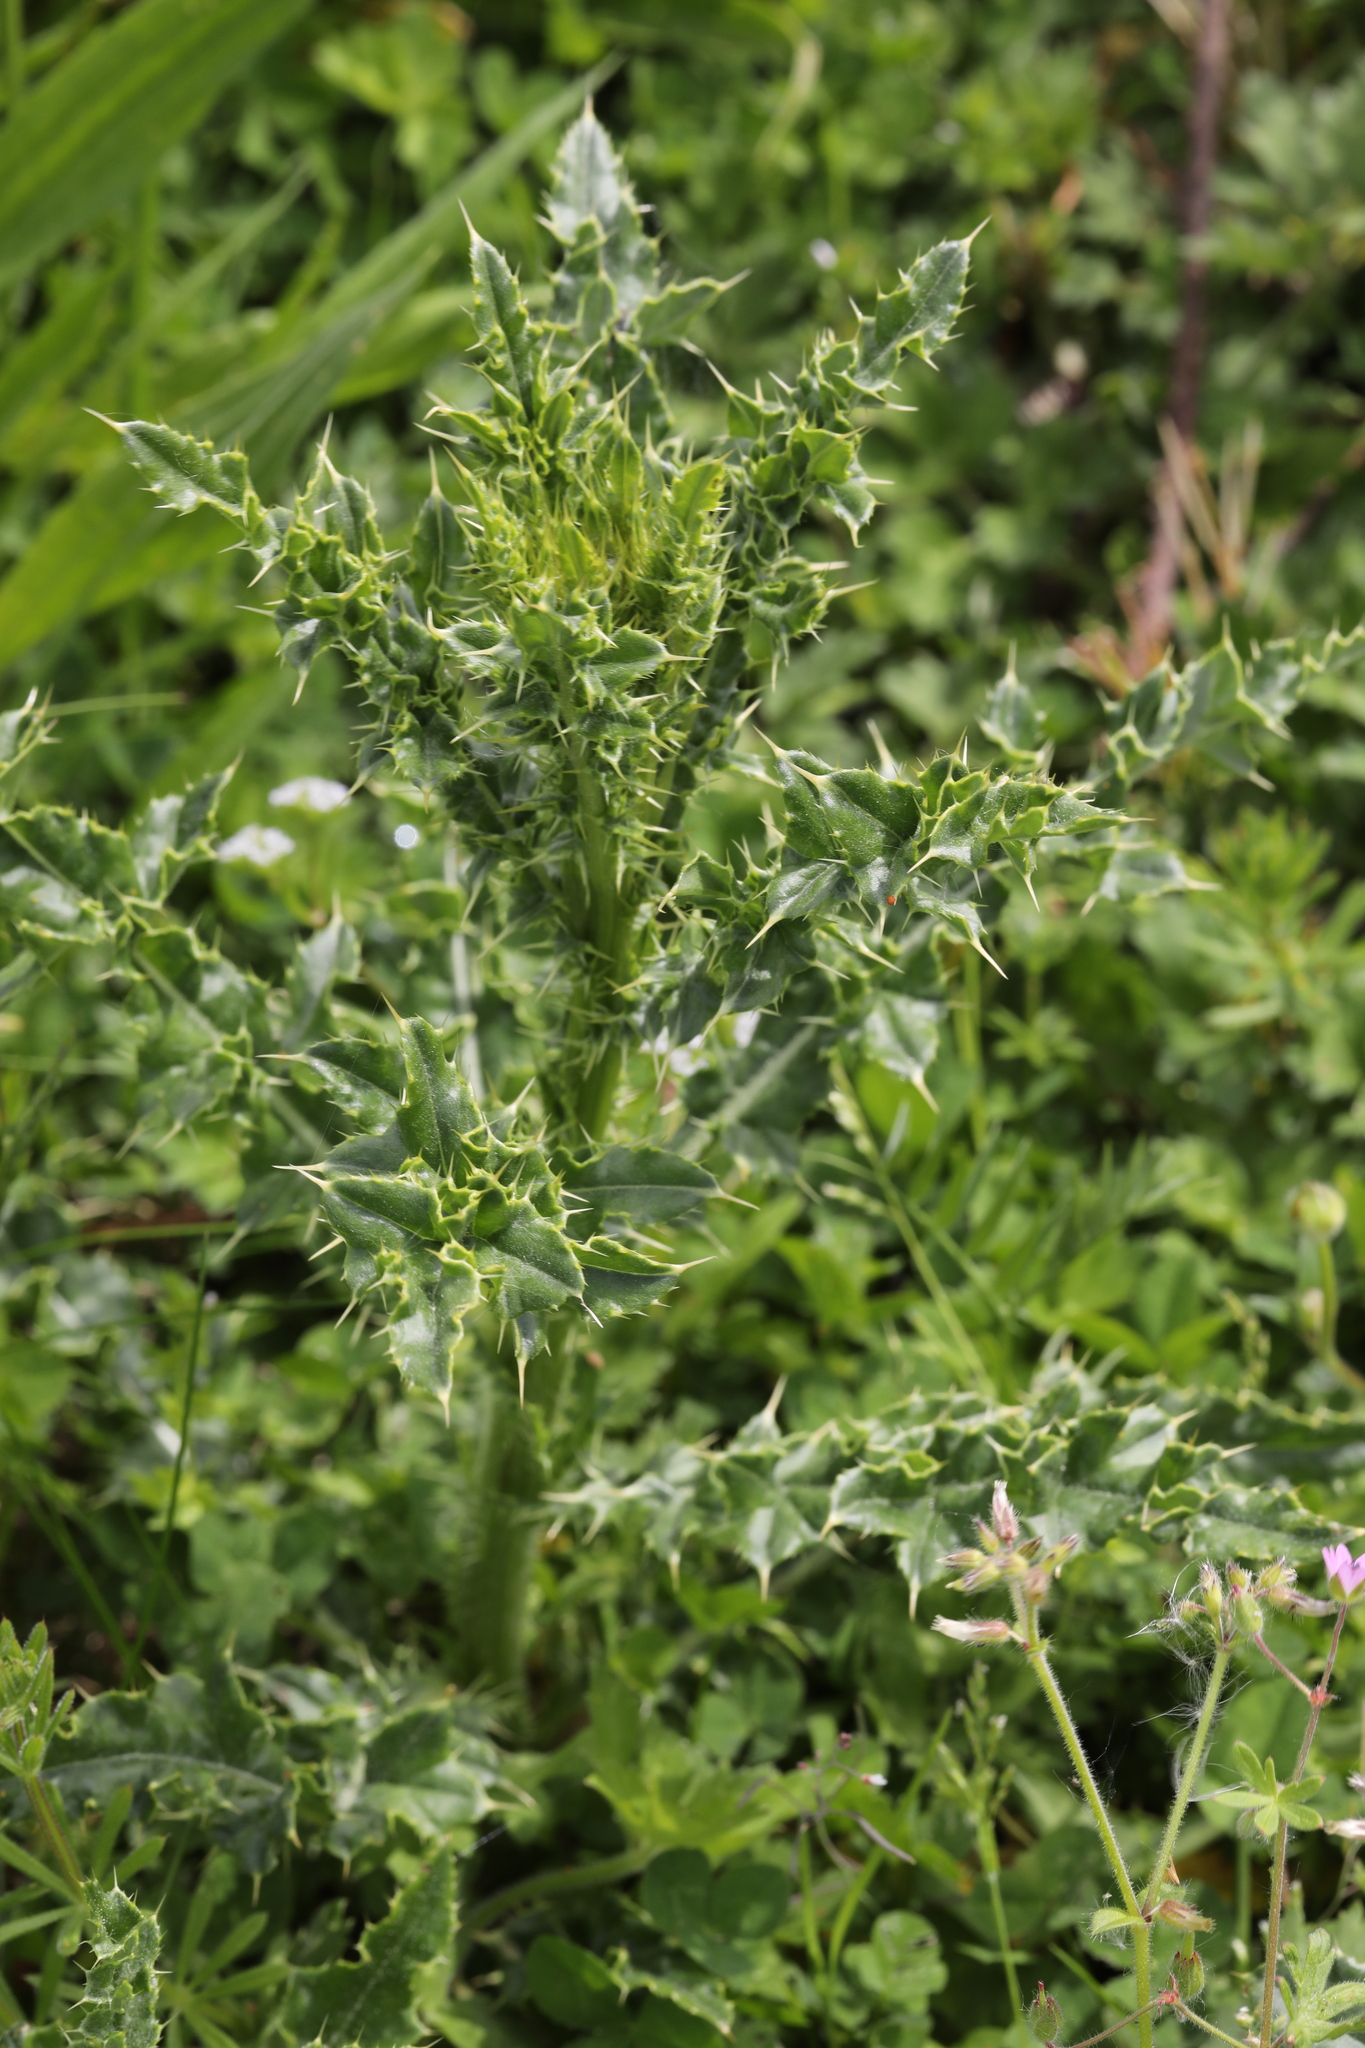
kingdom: Plantae
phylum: Tracheophyta
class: Magnoliopsida
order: Asterales
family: Asteraceae
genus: Cirsium
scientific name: Cirsium arvense
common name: Creeping thistle
